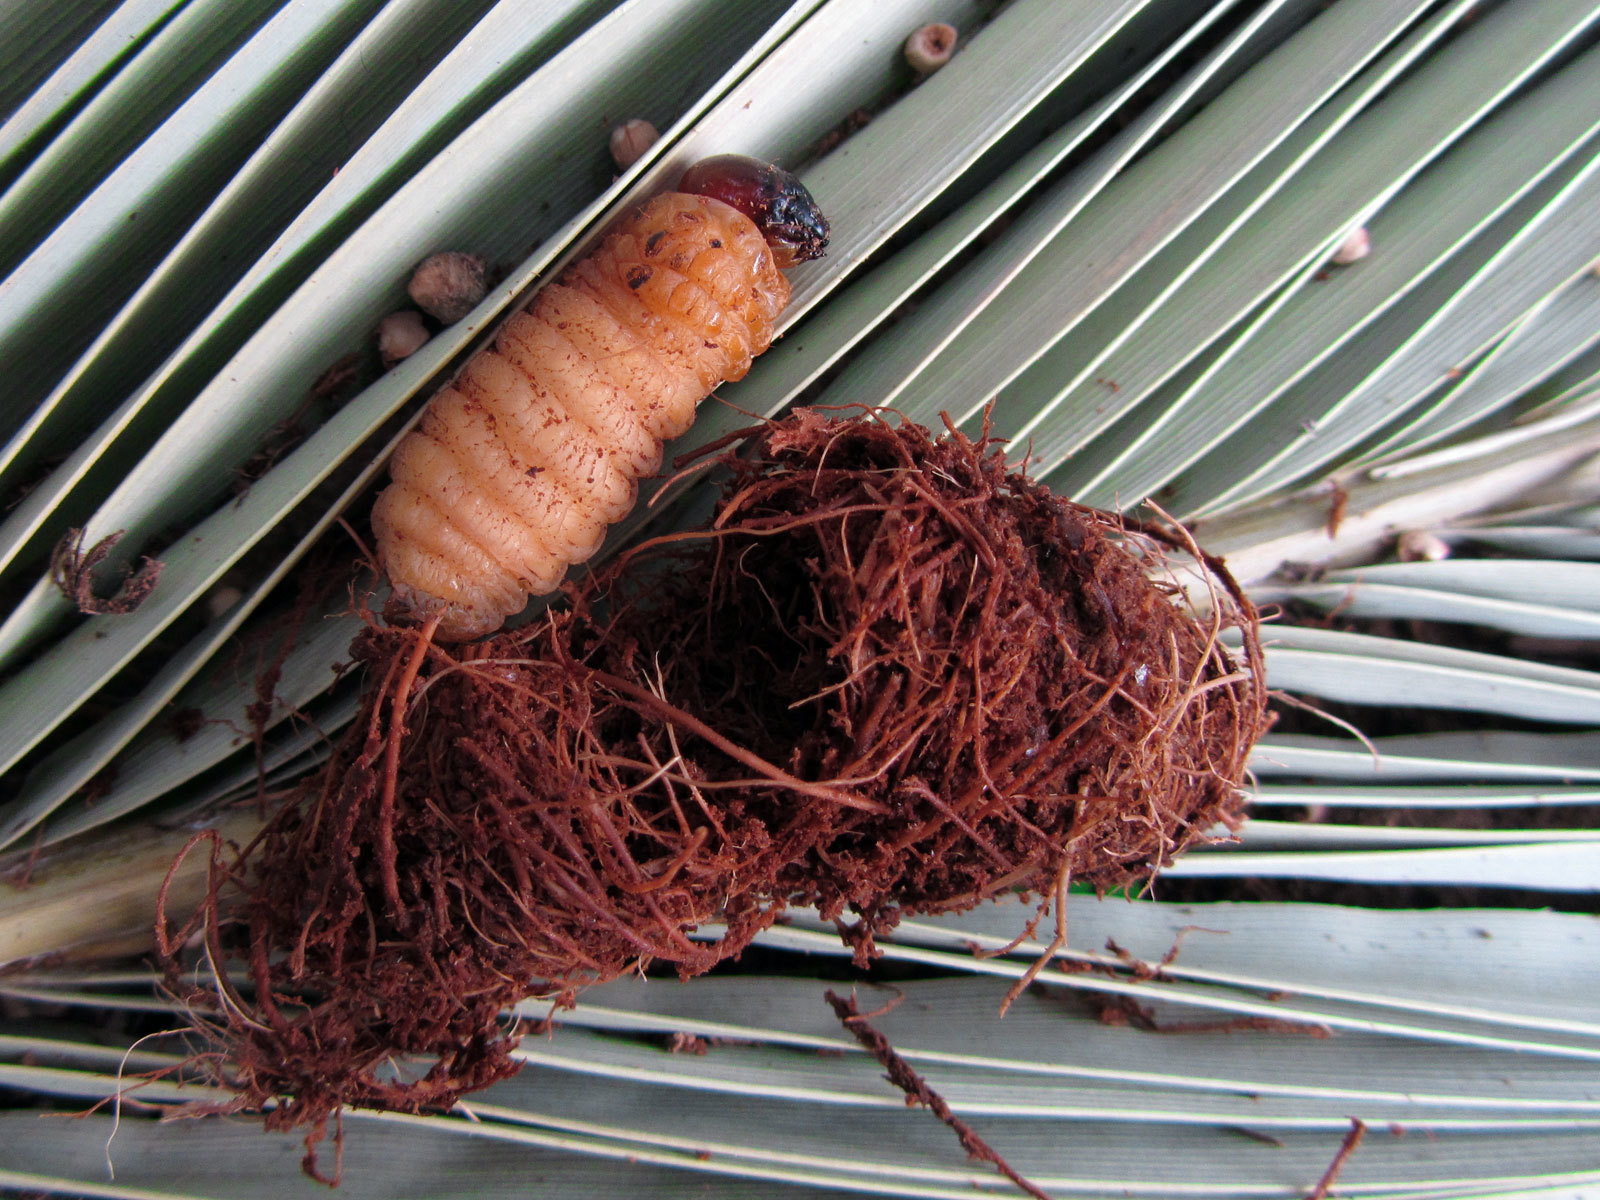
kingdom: Animalia
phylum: Arthropoda
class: Insecta
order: Coleoptera
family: Dryophthoridae
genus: Rhynchophorus
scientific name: Rhynchophorus ferrugineus
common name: Red palm weevil
